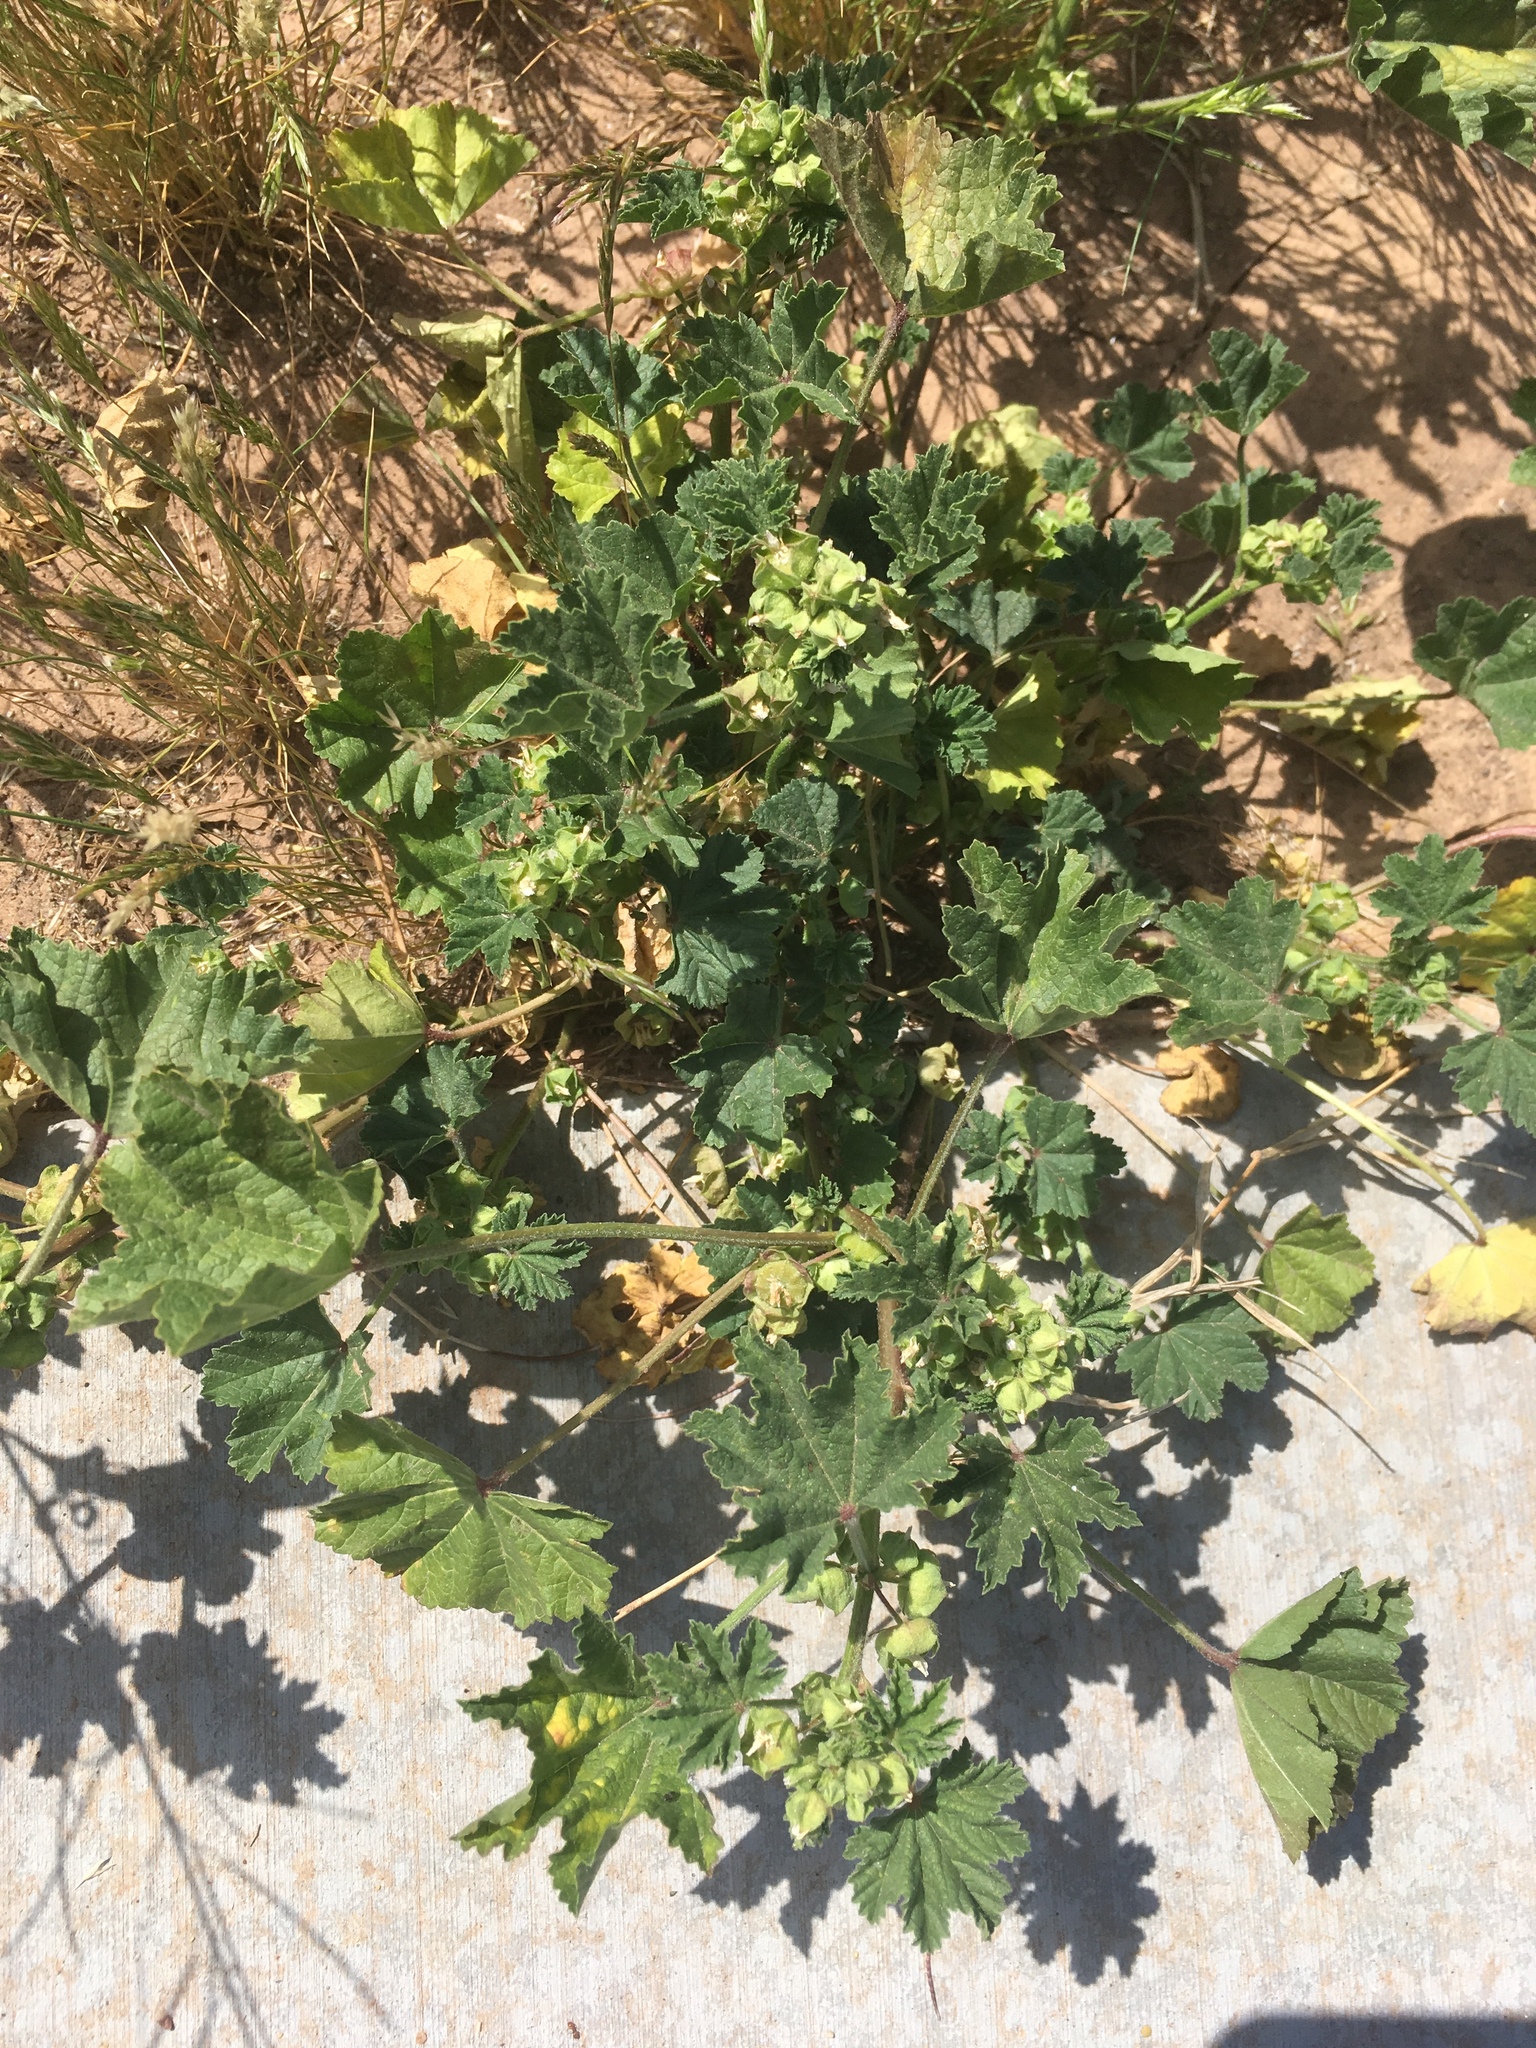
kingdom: Plantae
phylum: Tracheophyta
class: Magnoliopsida
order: Malvales
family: Malvaceae
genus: Malva
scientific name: Malva parviflora
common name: Least mallow
